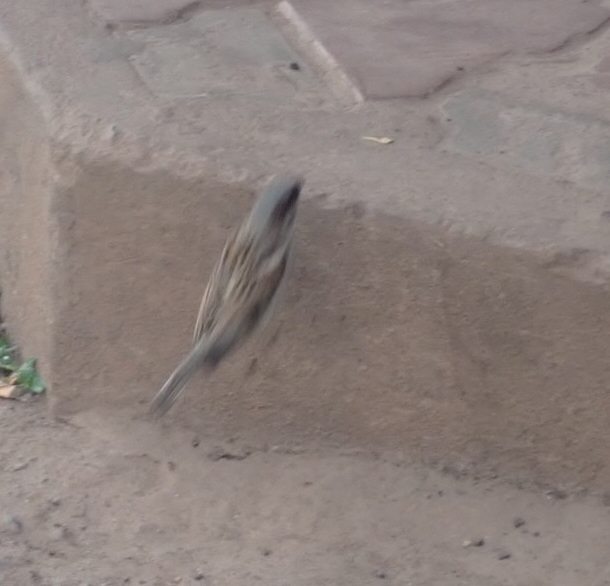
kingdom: Animalia
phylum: Chordata
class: Aves
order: Passeriformes
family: Passeridae
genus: Passer
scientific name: Passer domesticus
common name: House sparrow
